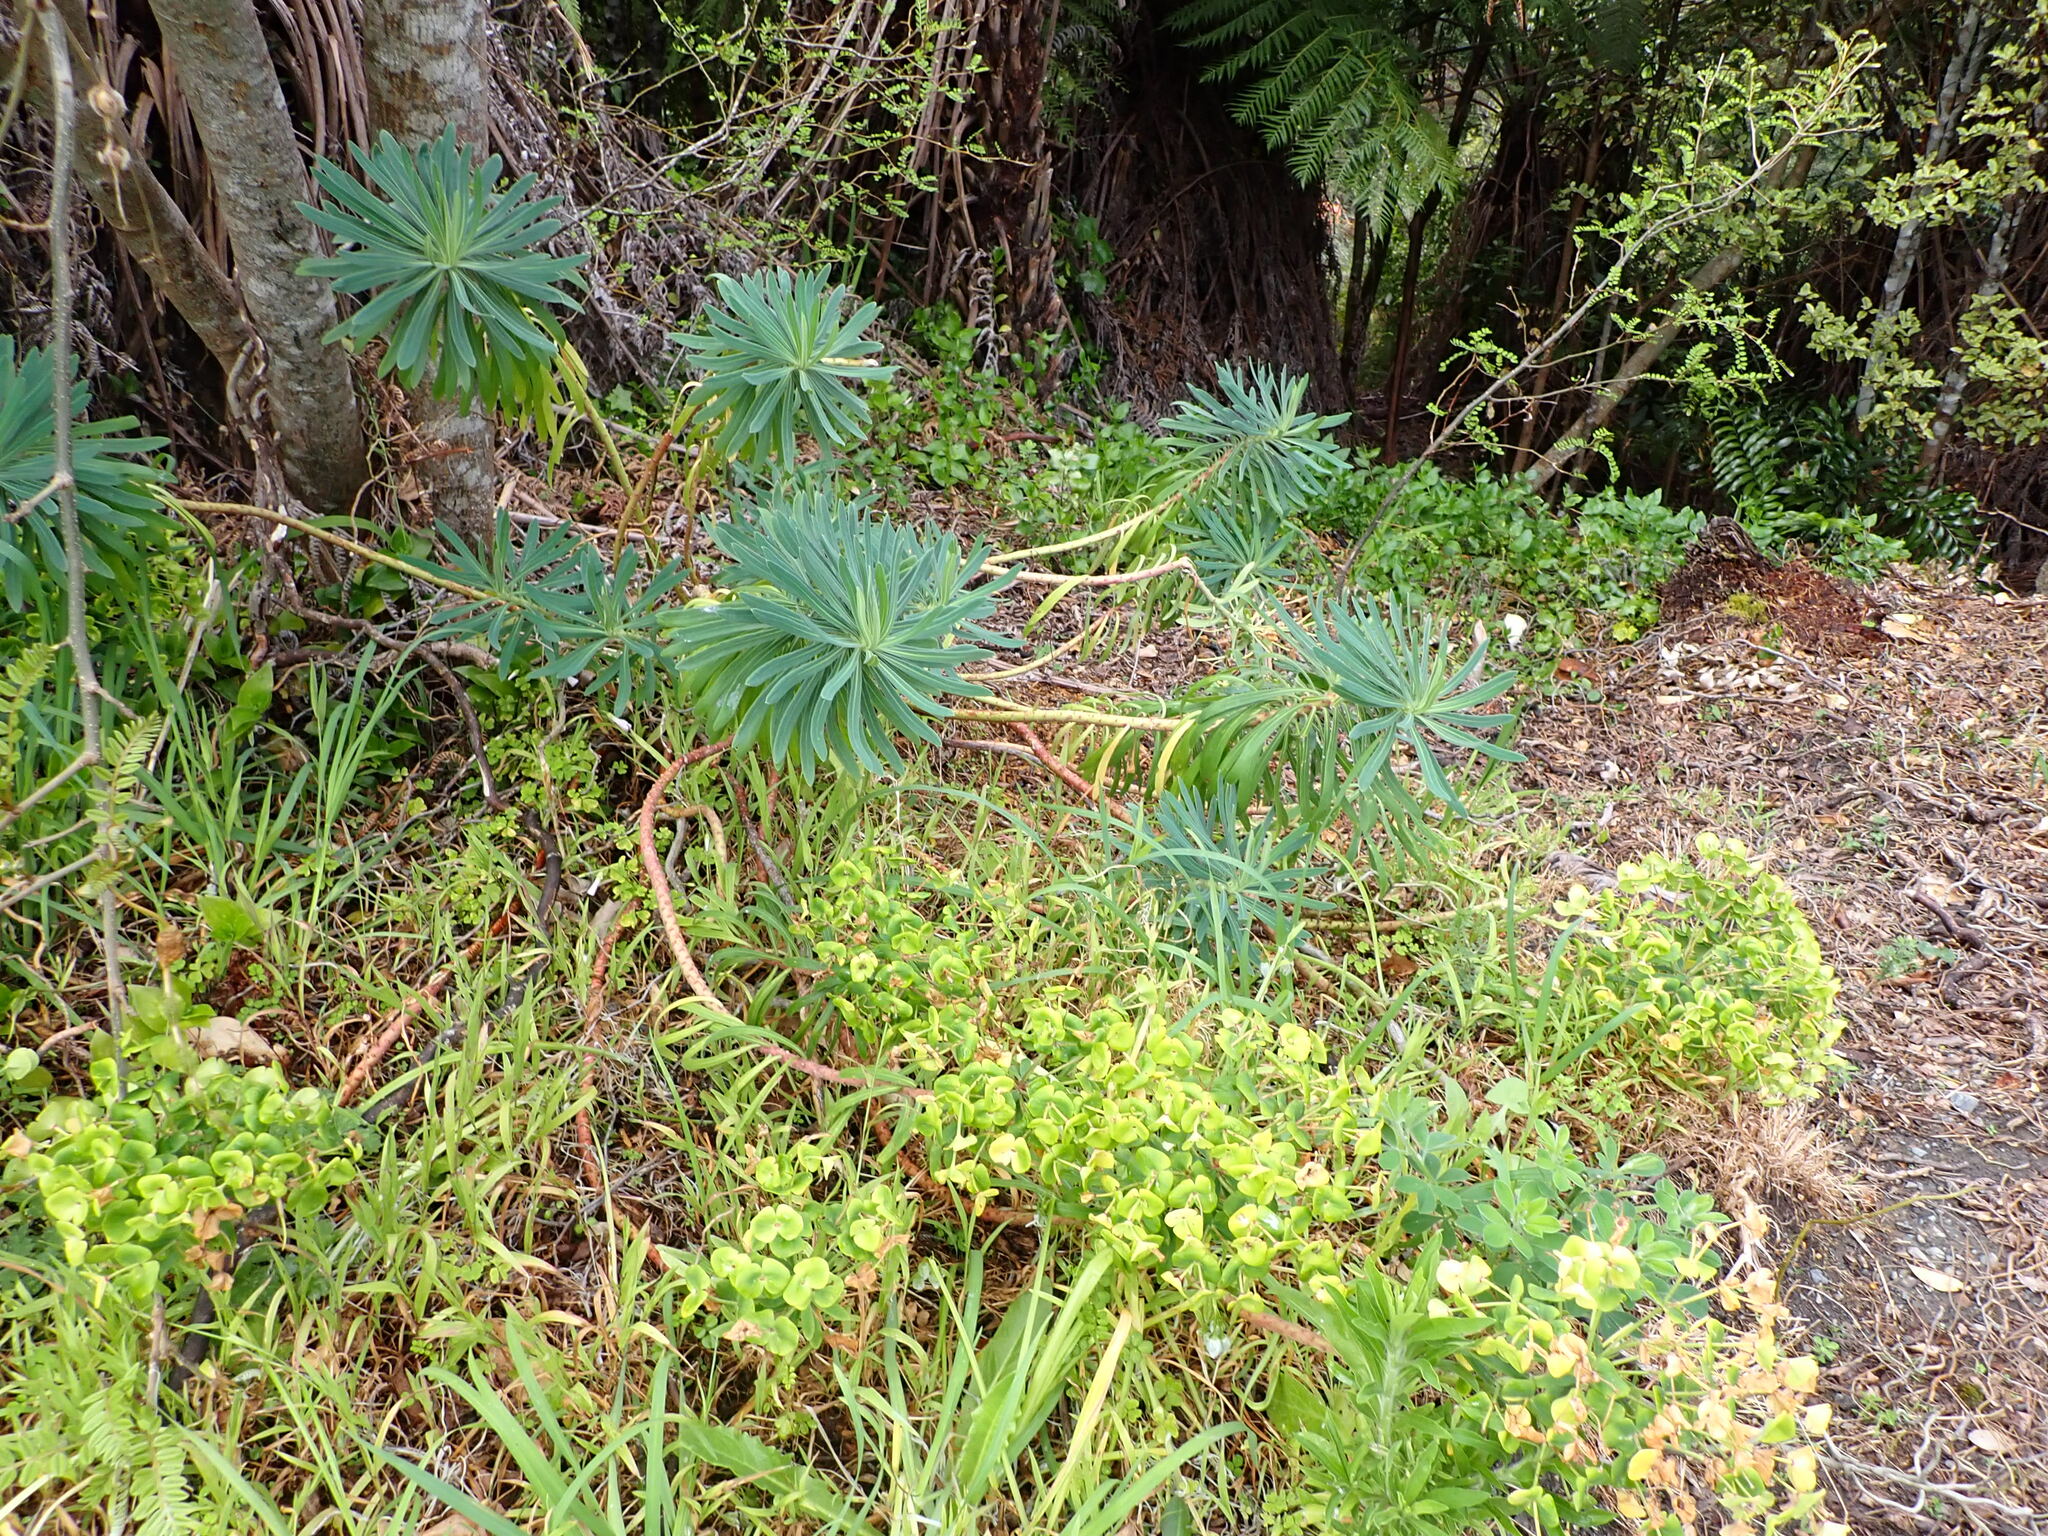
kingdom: Plantae
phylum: Tracheophyta
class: Magnoliopsida
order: Malpighiales
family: Euphorbiaceae
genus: Euphorbia
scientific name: Euphorbia characias
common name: Mediterranean spurge
